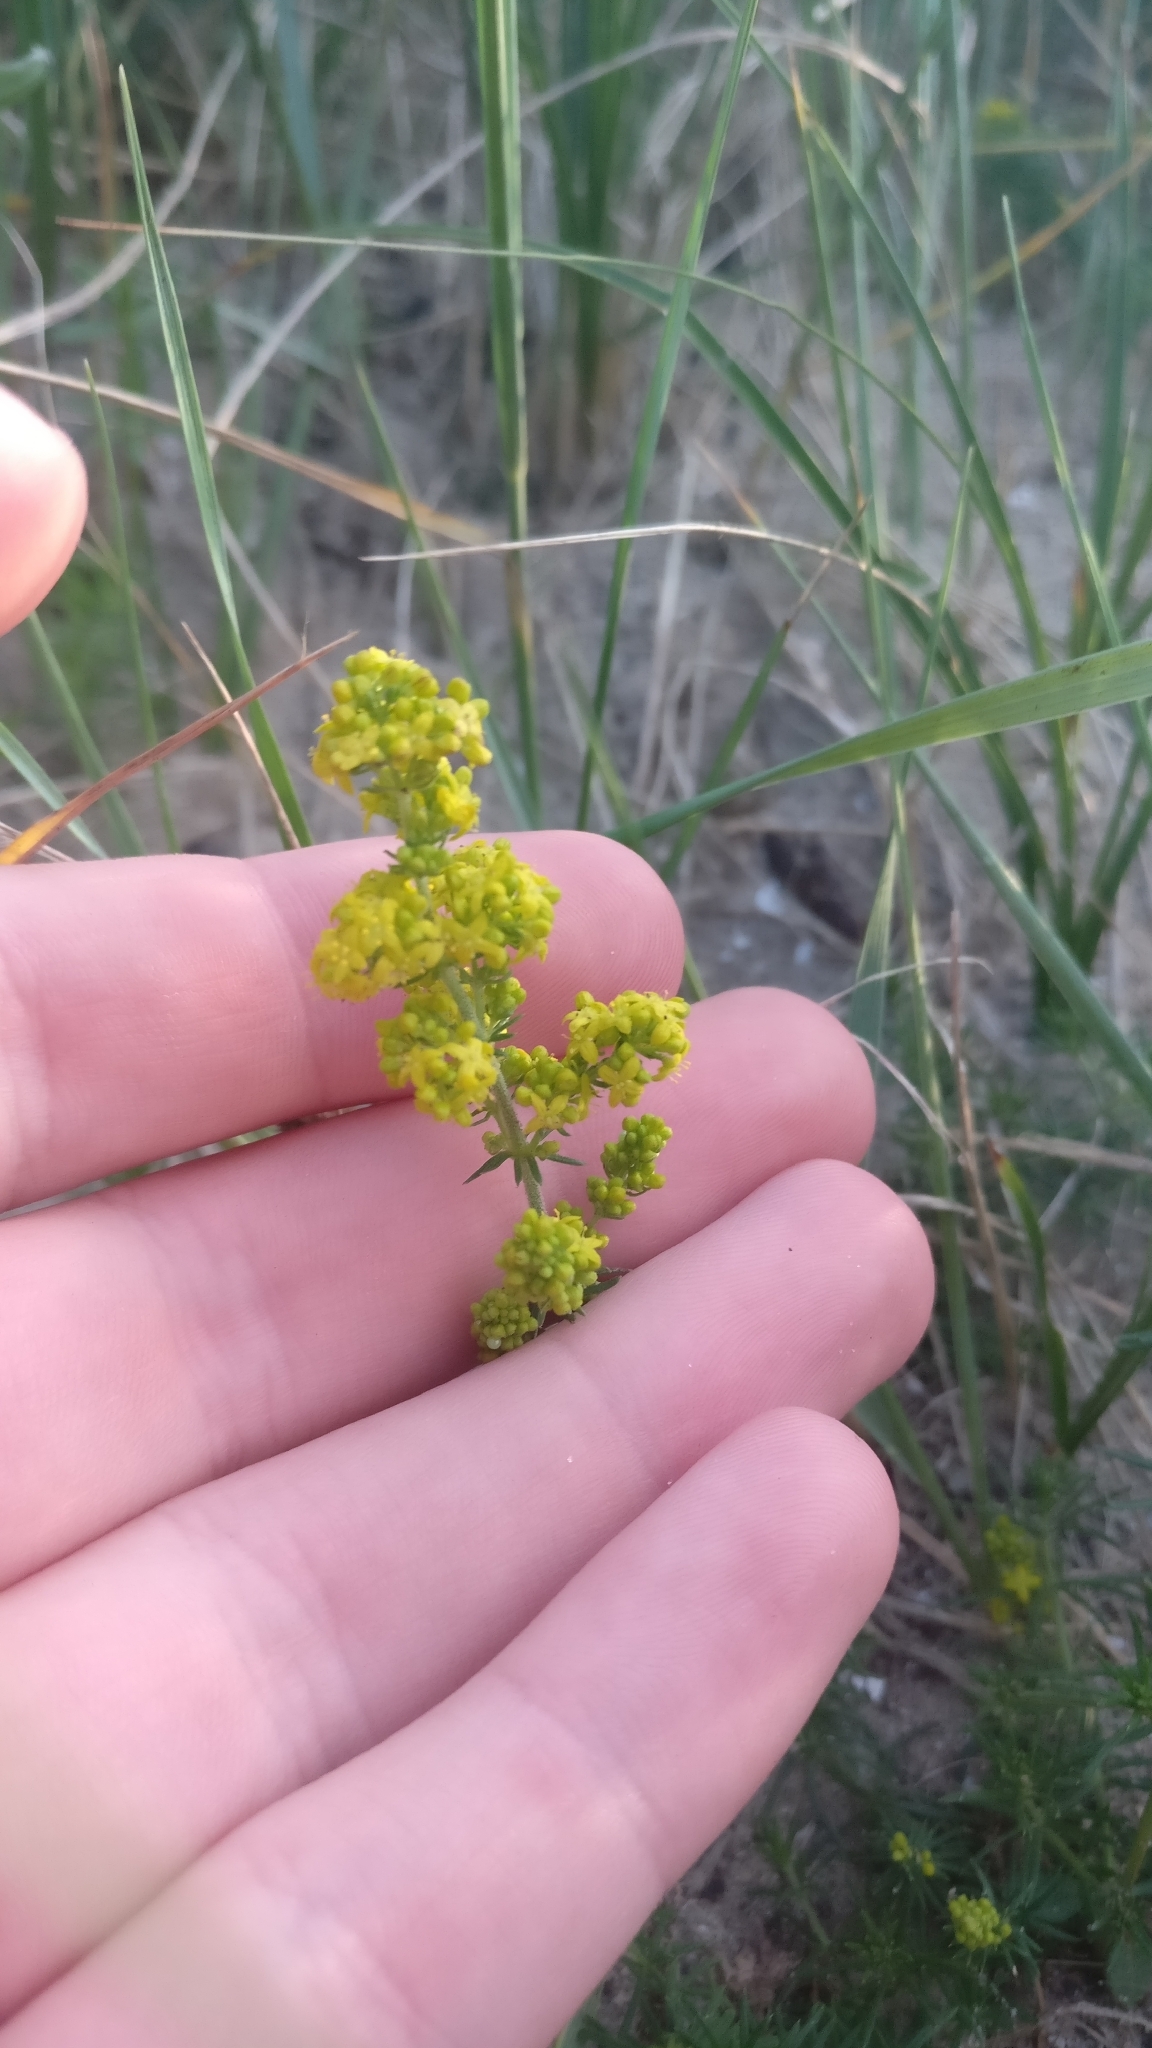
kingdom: Plantae
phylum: Tracheophyta
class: Magnoliopsida
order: Gentianales
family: Rubiaceae
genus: Galium
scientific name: Galium verum
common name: Lady's bedstraw
